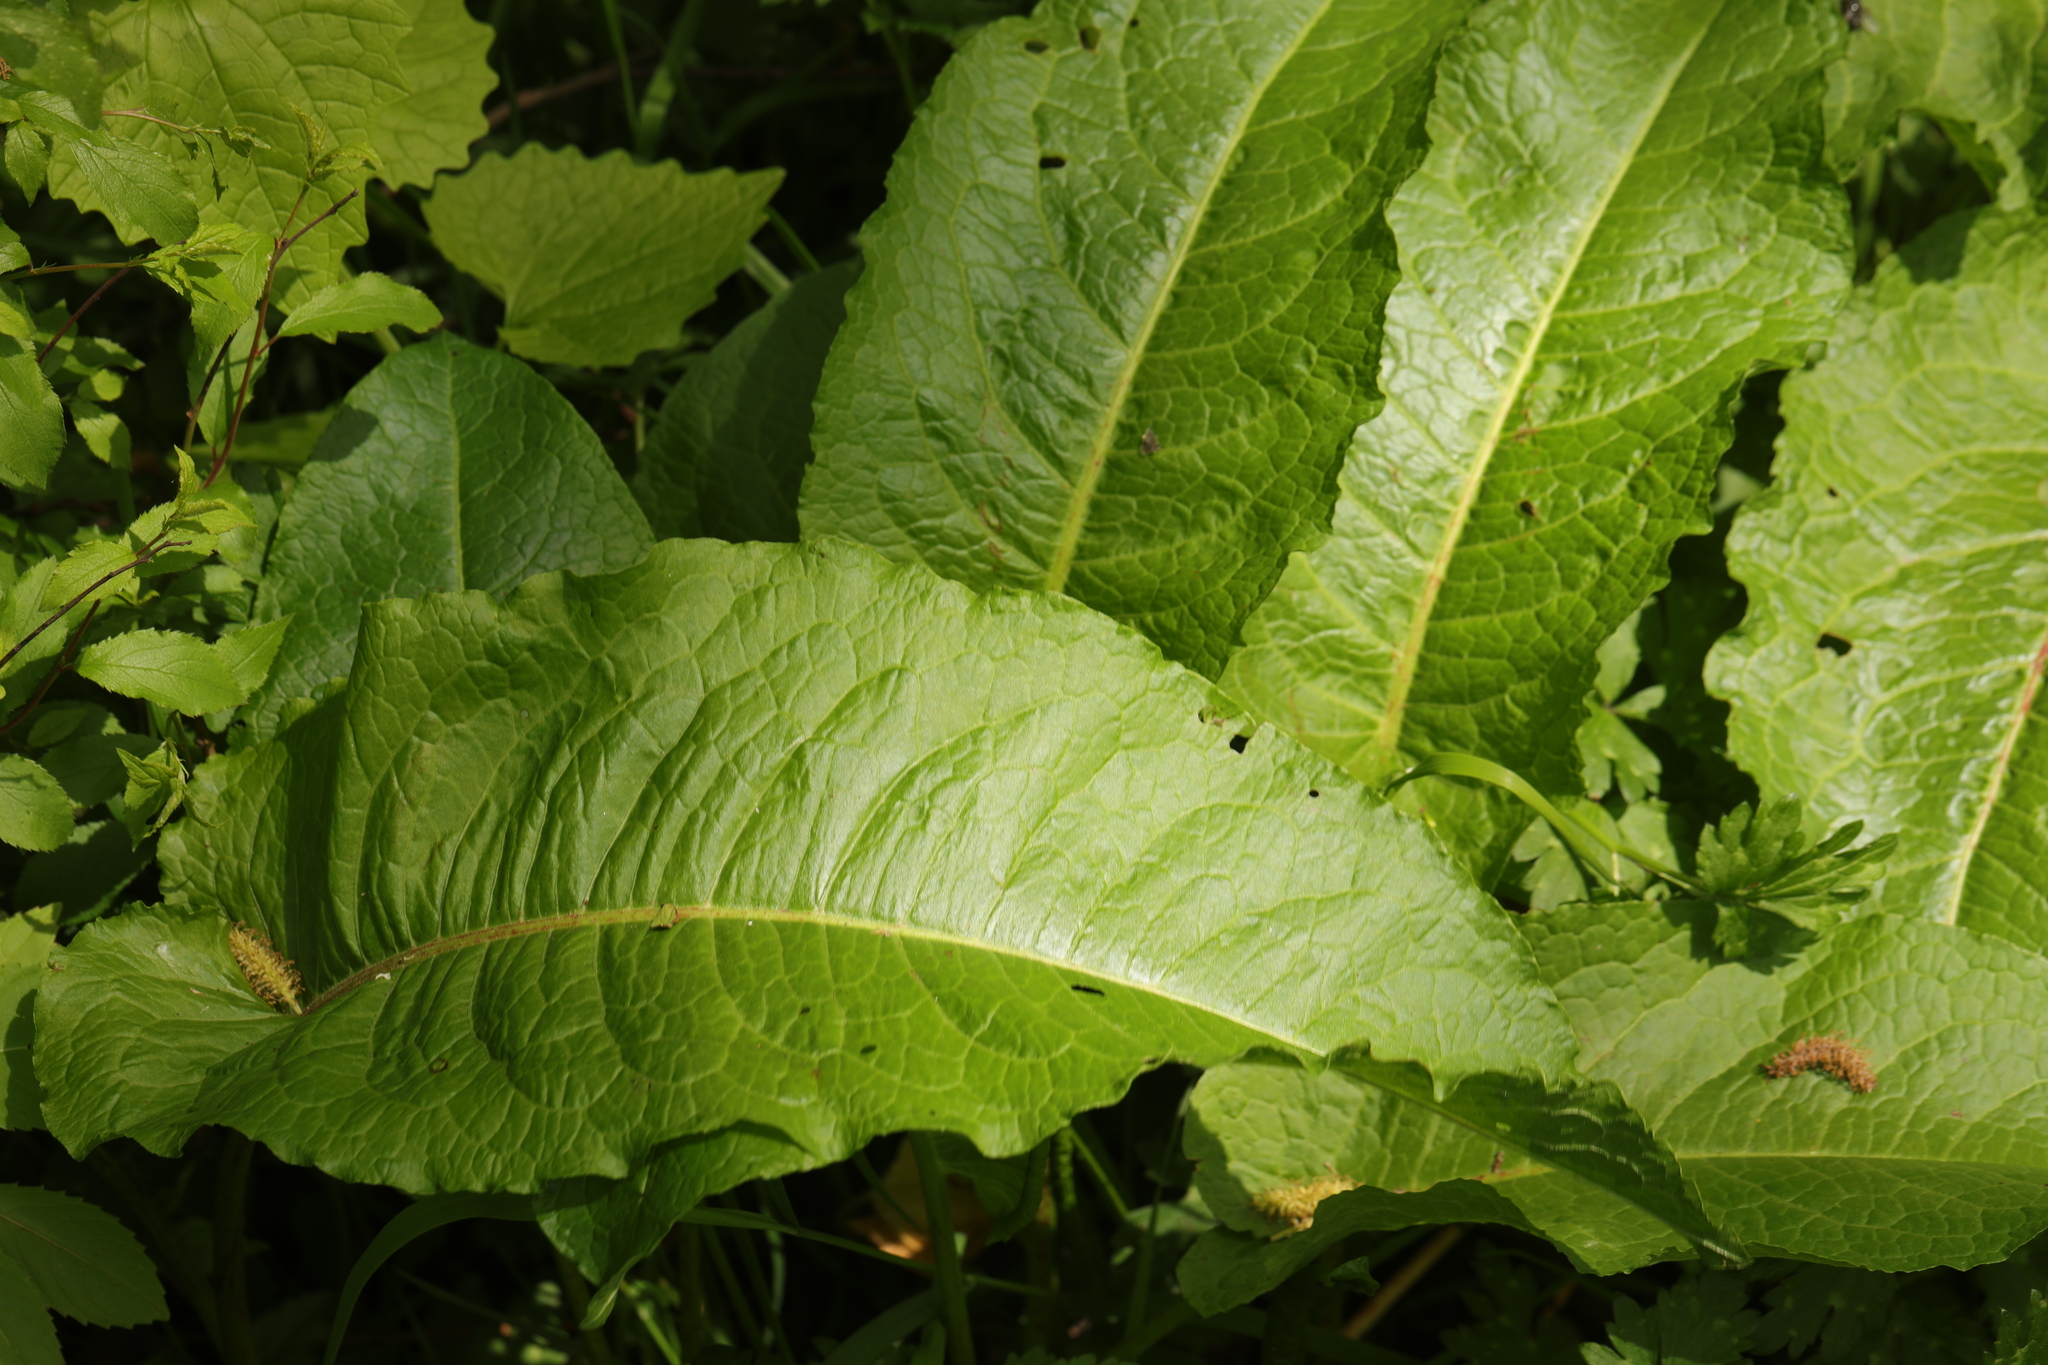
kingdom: Plantae
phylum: Tracheophyta
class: Magnoliopsida
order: Caryophyllales
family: Polygonaceae
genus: Rumex
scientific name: Rumex obtusifolius
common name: Bitter dock
